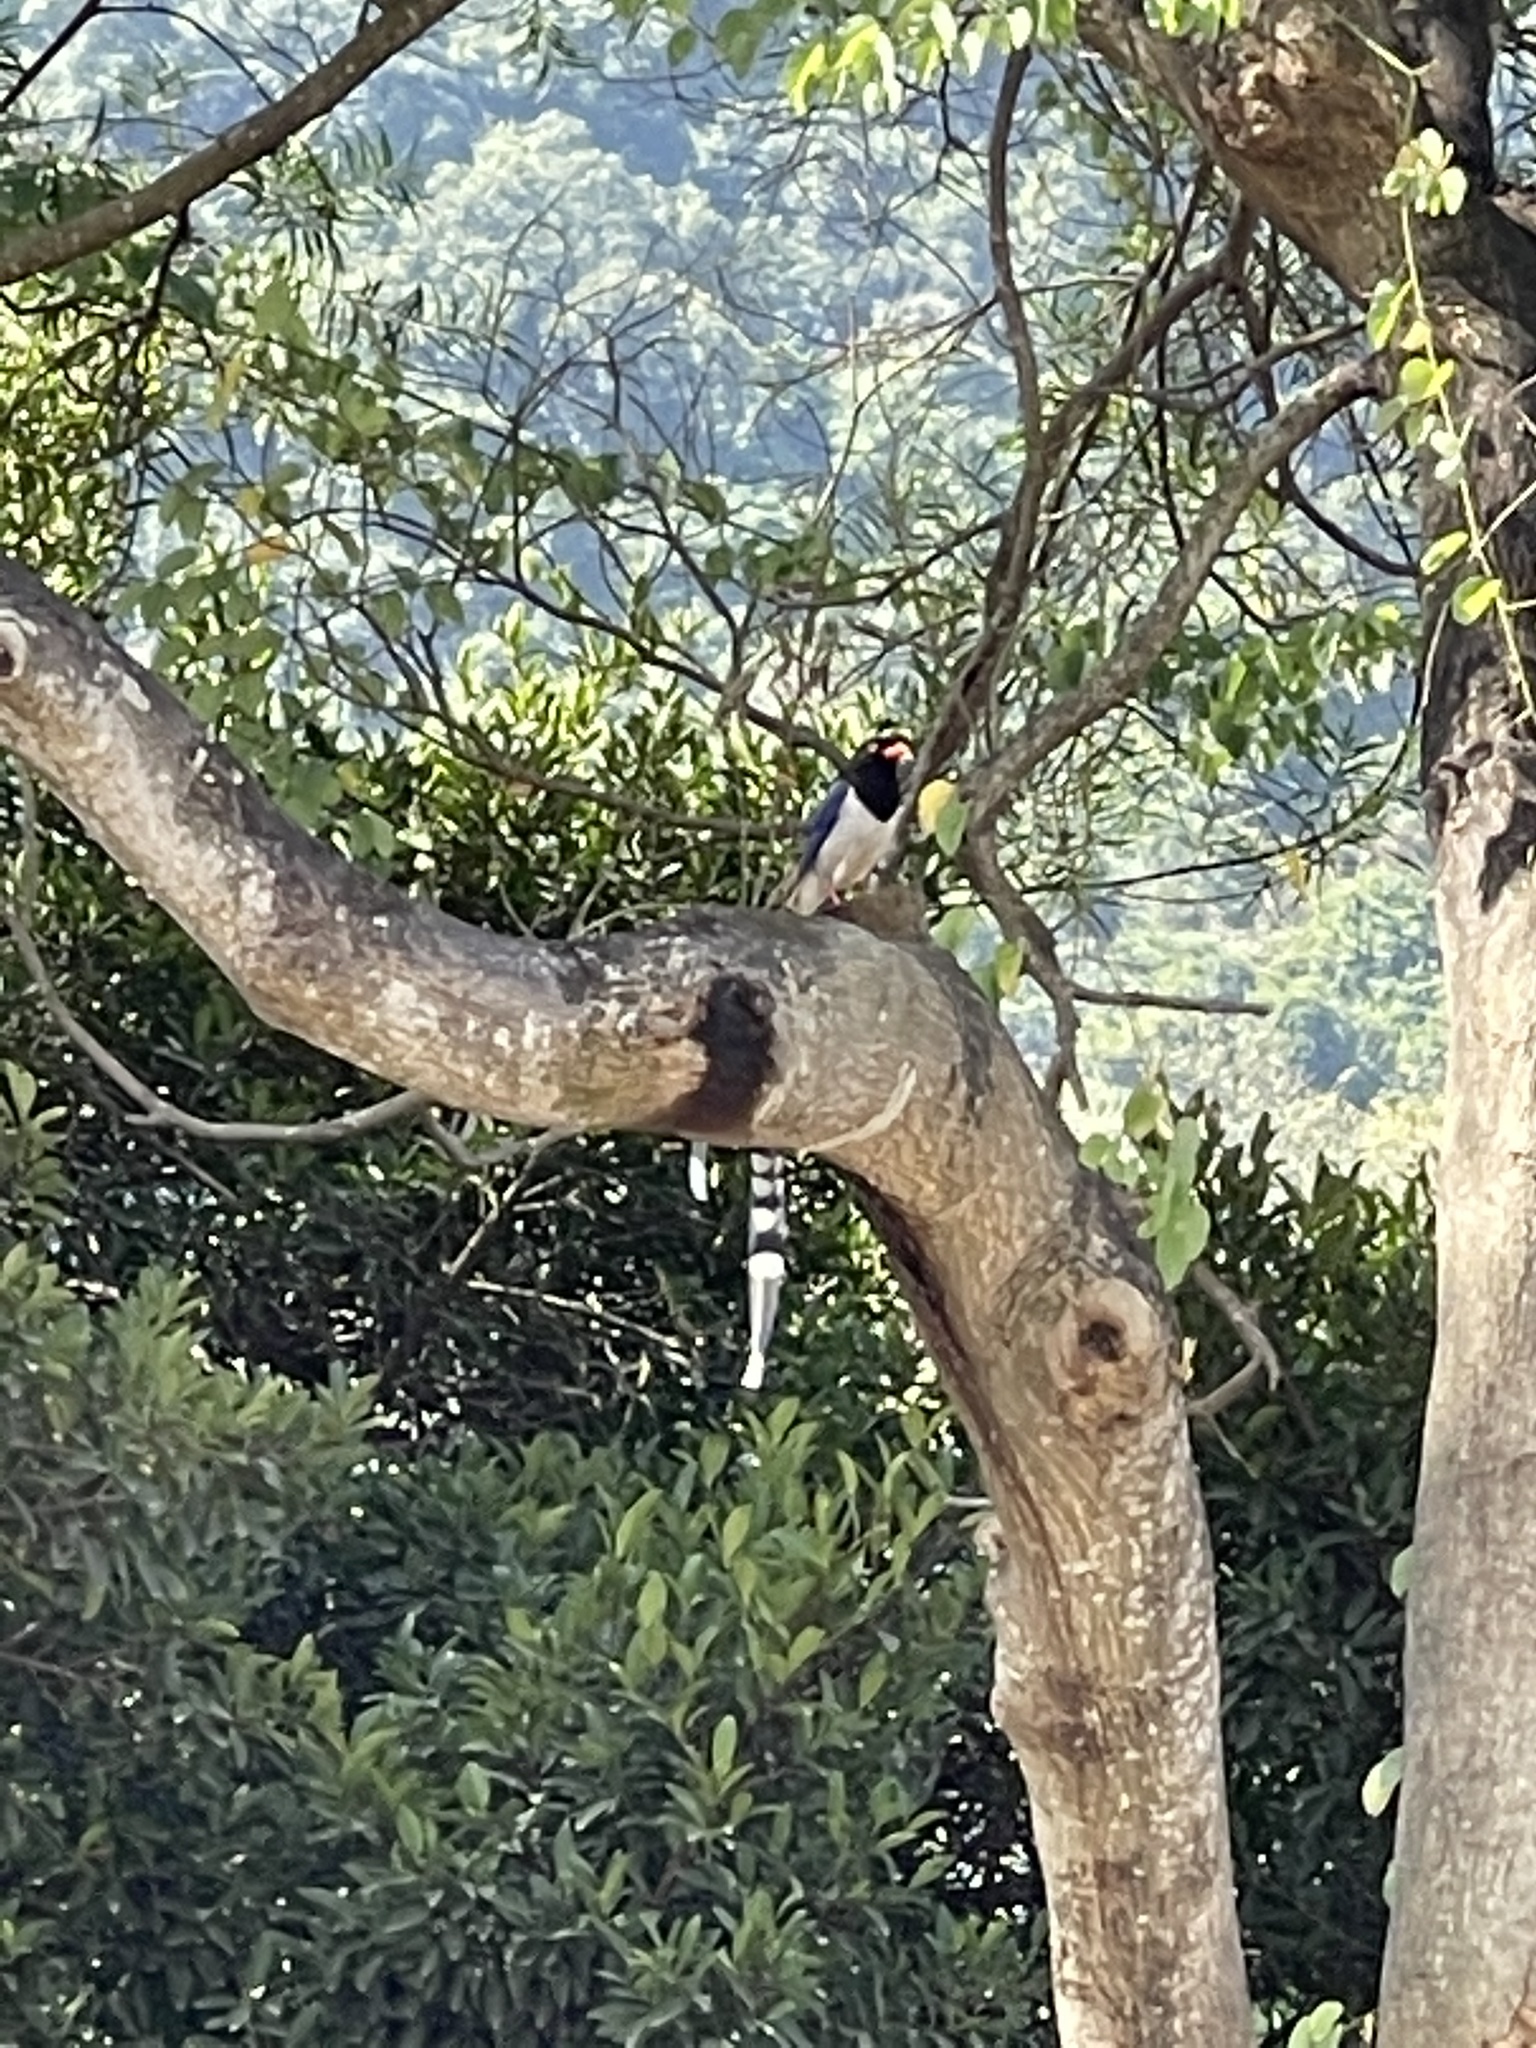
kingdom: Animalia
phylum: Chordata
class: Aves
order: Passeriformes
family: Corvidae
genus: Urocissa
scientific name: Urocissa erythroryncha
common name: Red-billed blue magpie
